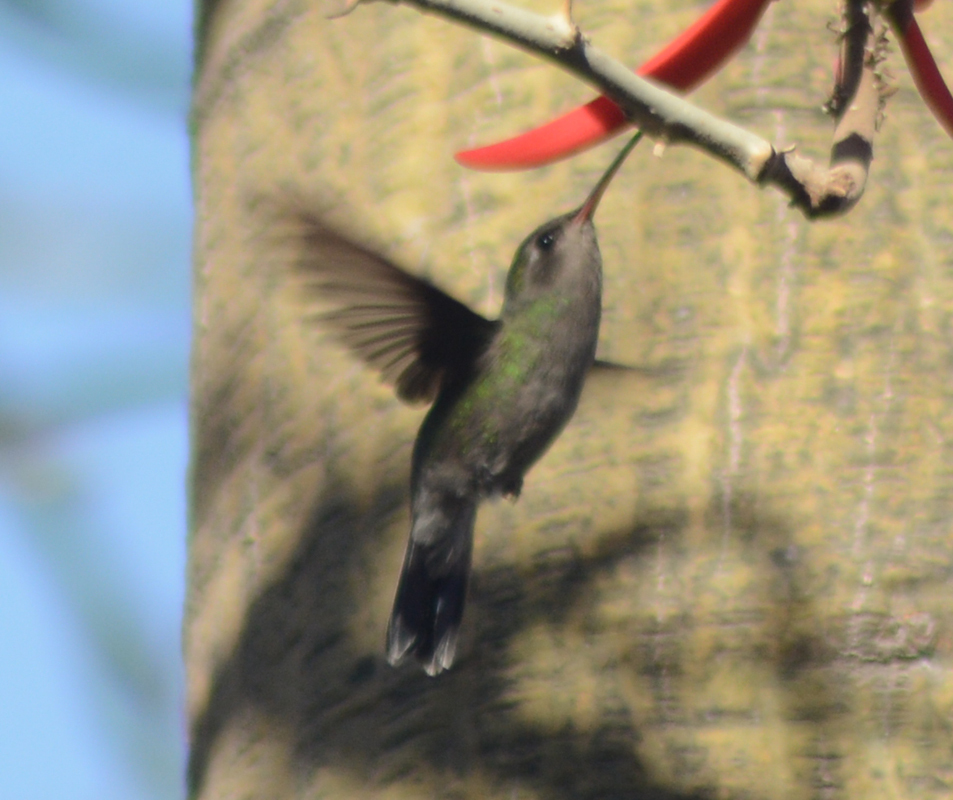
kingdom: Animalia
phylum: Chordata
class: Aves
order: Apodiformes
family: Trochilidae
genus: Cynanthus
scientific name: Cynanthus latirostris
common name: Broad-billed hummingbird
